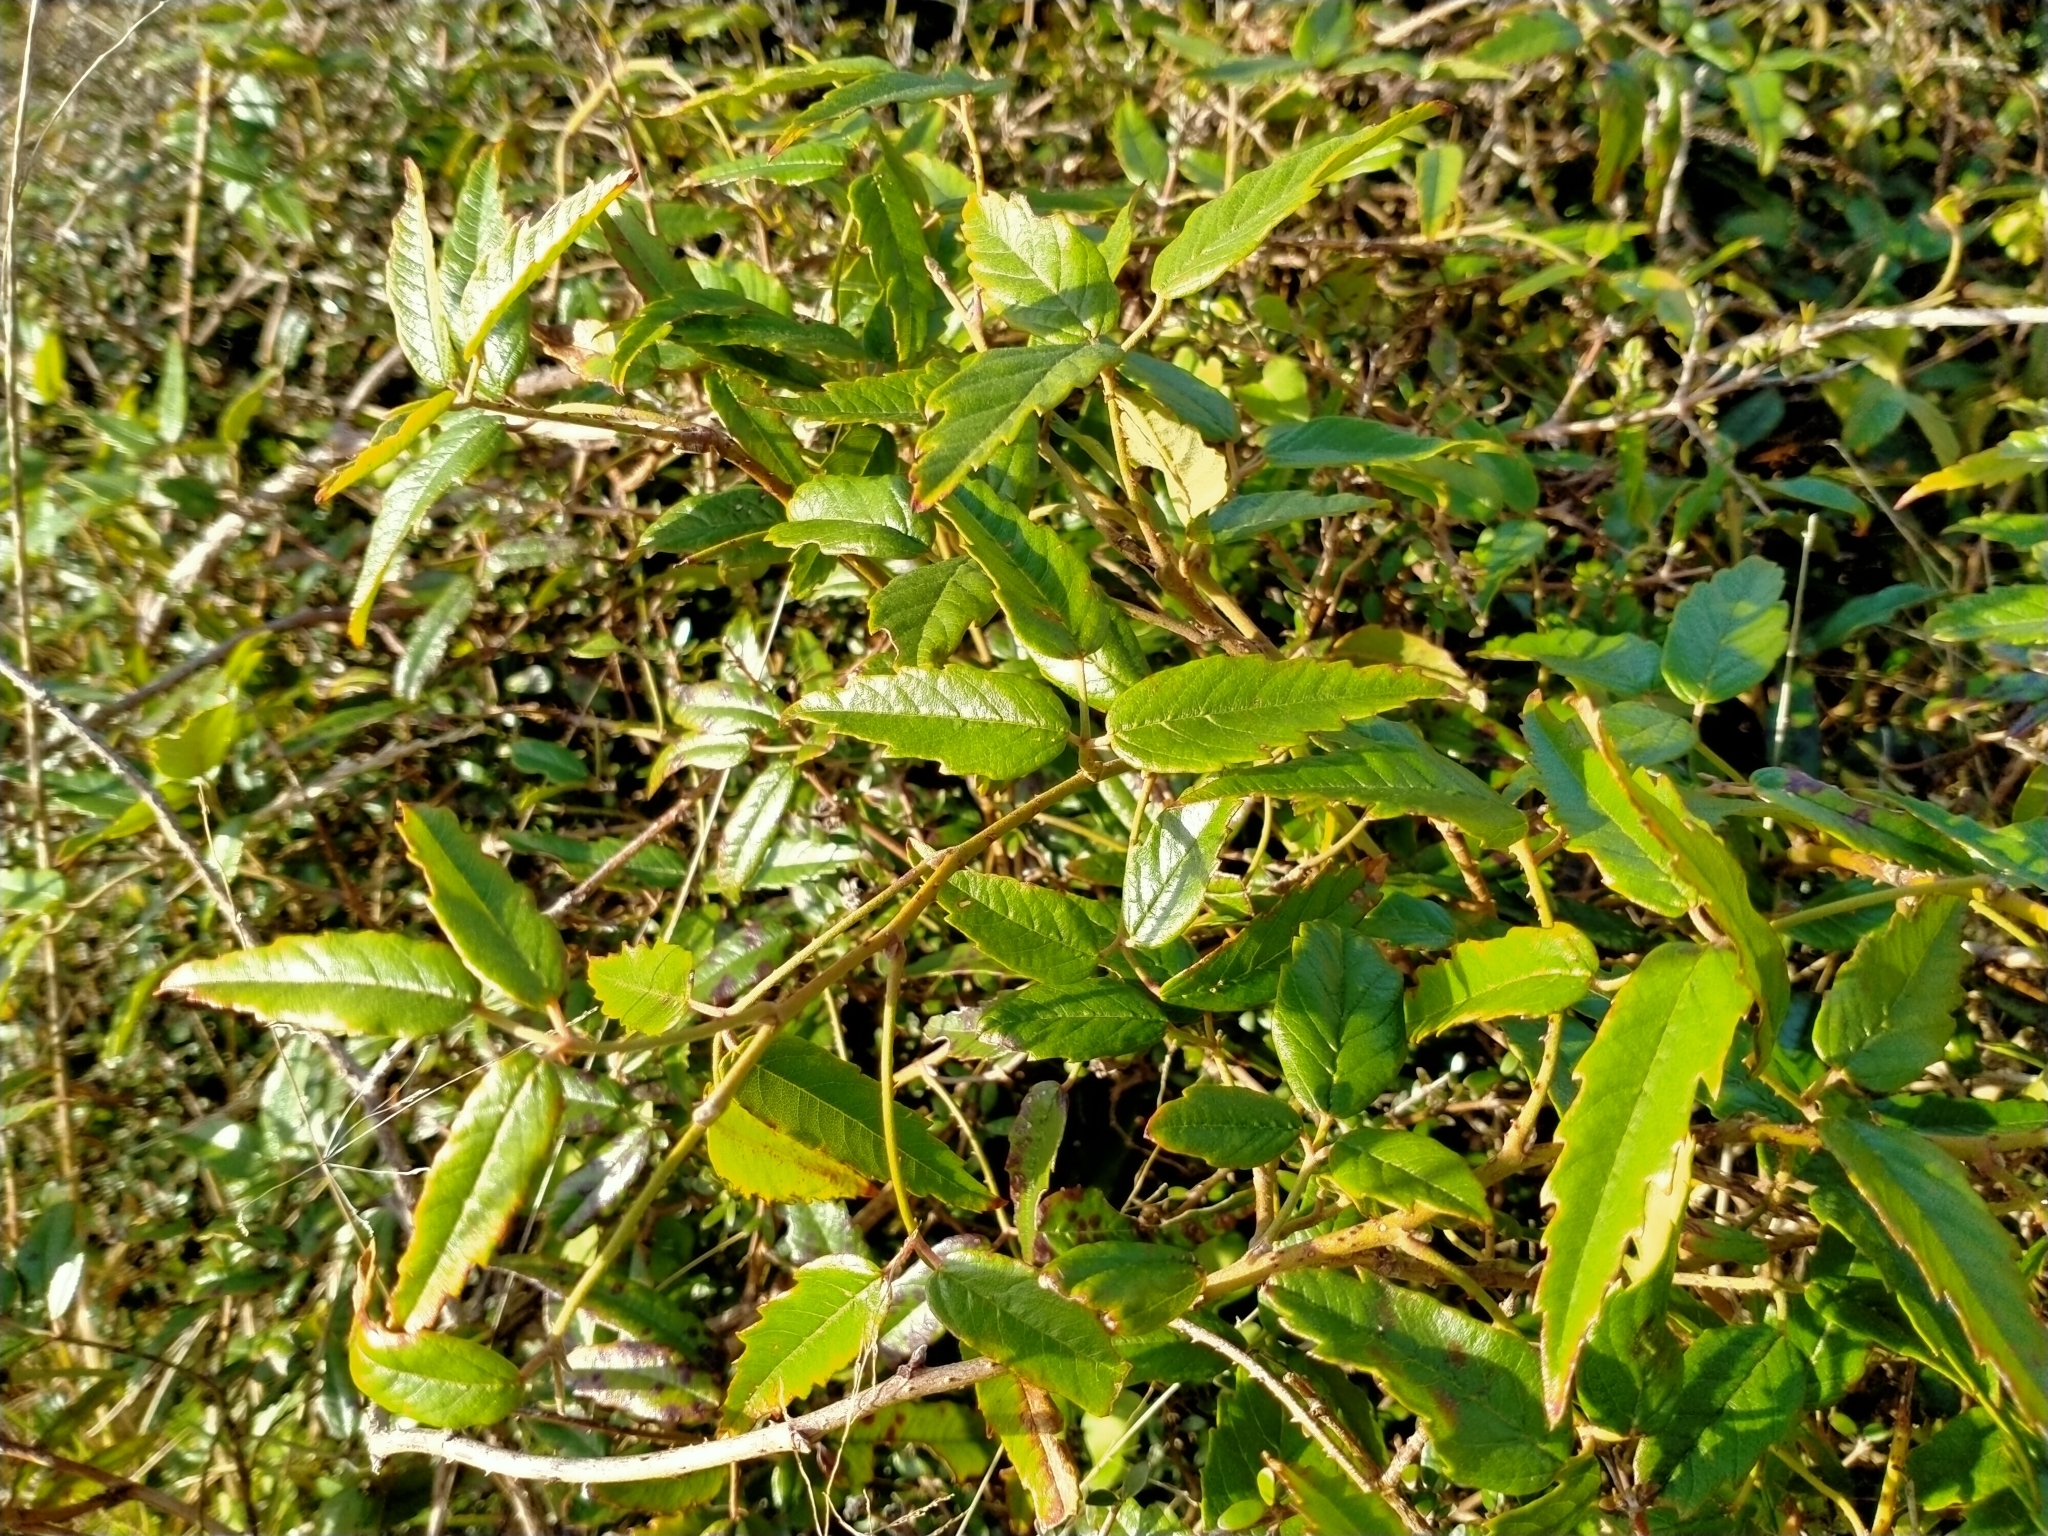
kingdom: Plantae
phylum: Tracheophyta
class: Magnoliopsida
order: Rosales
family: Rosaceae
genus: Rubus
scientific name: Rubus schmidelioides
